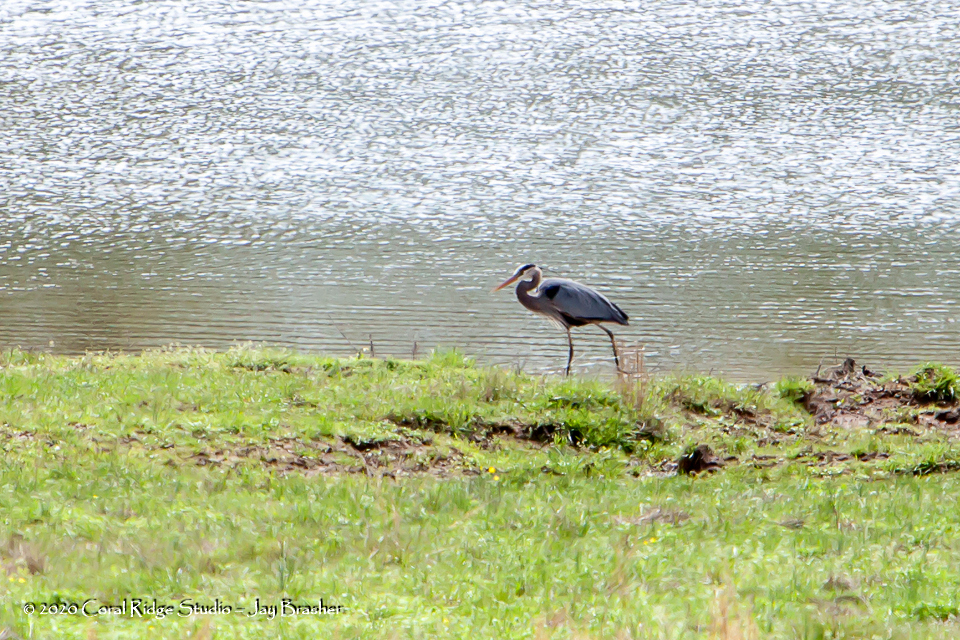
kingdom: Animalia
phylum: Chordata
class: Aves
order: Pelecaniformes
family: Ardeidae
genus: Ardea
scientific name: Ardea herodias
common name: Great blue heron
